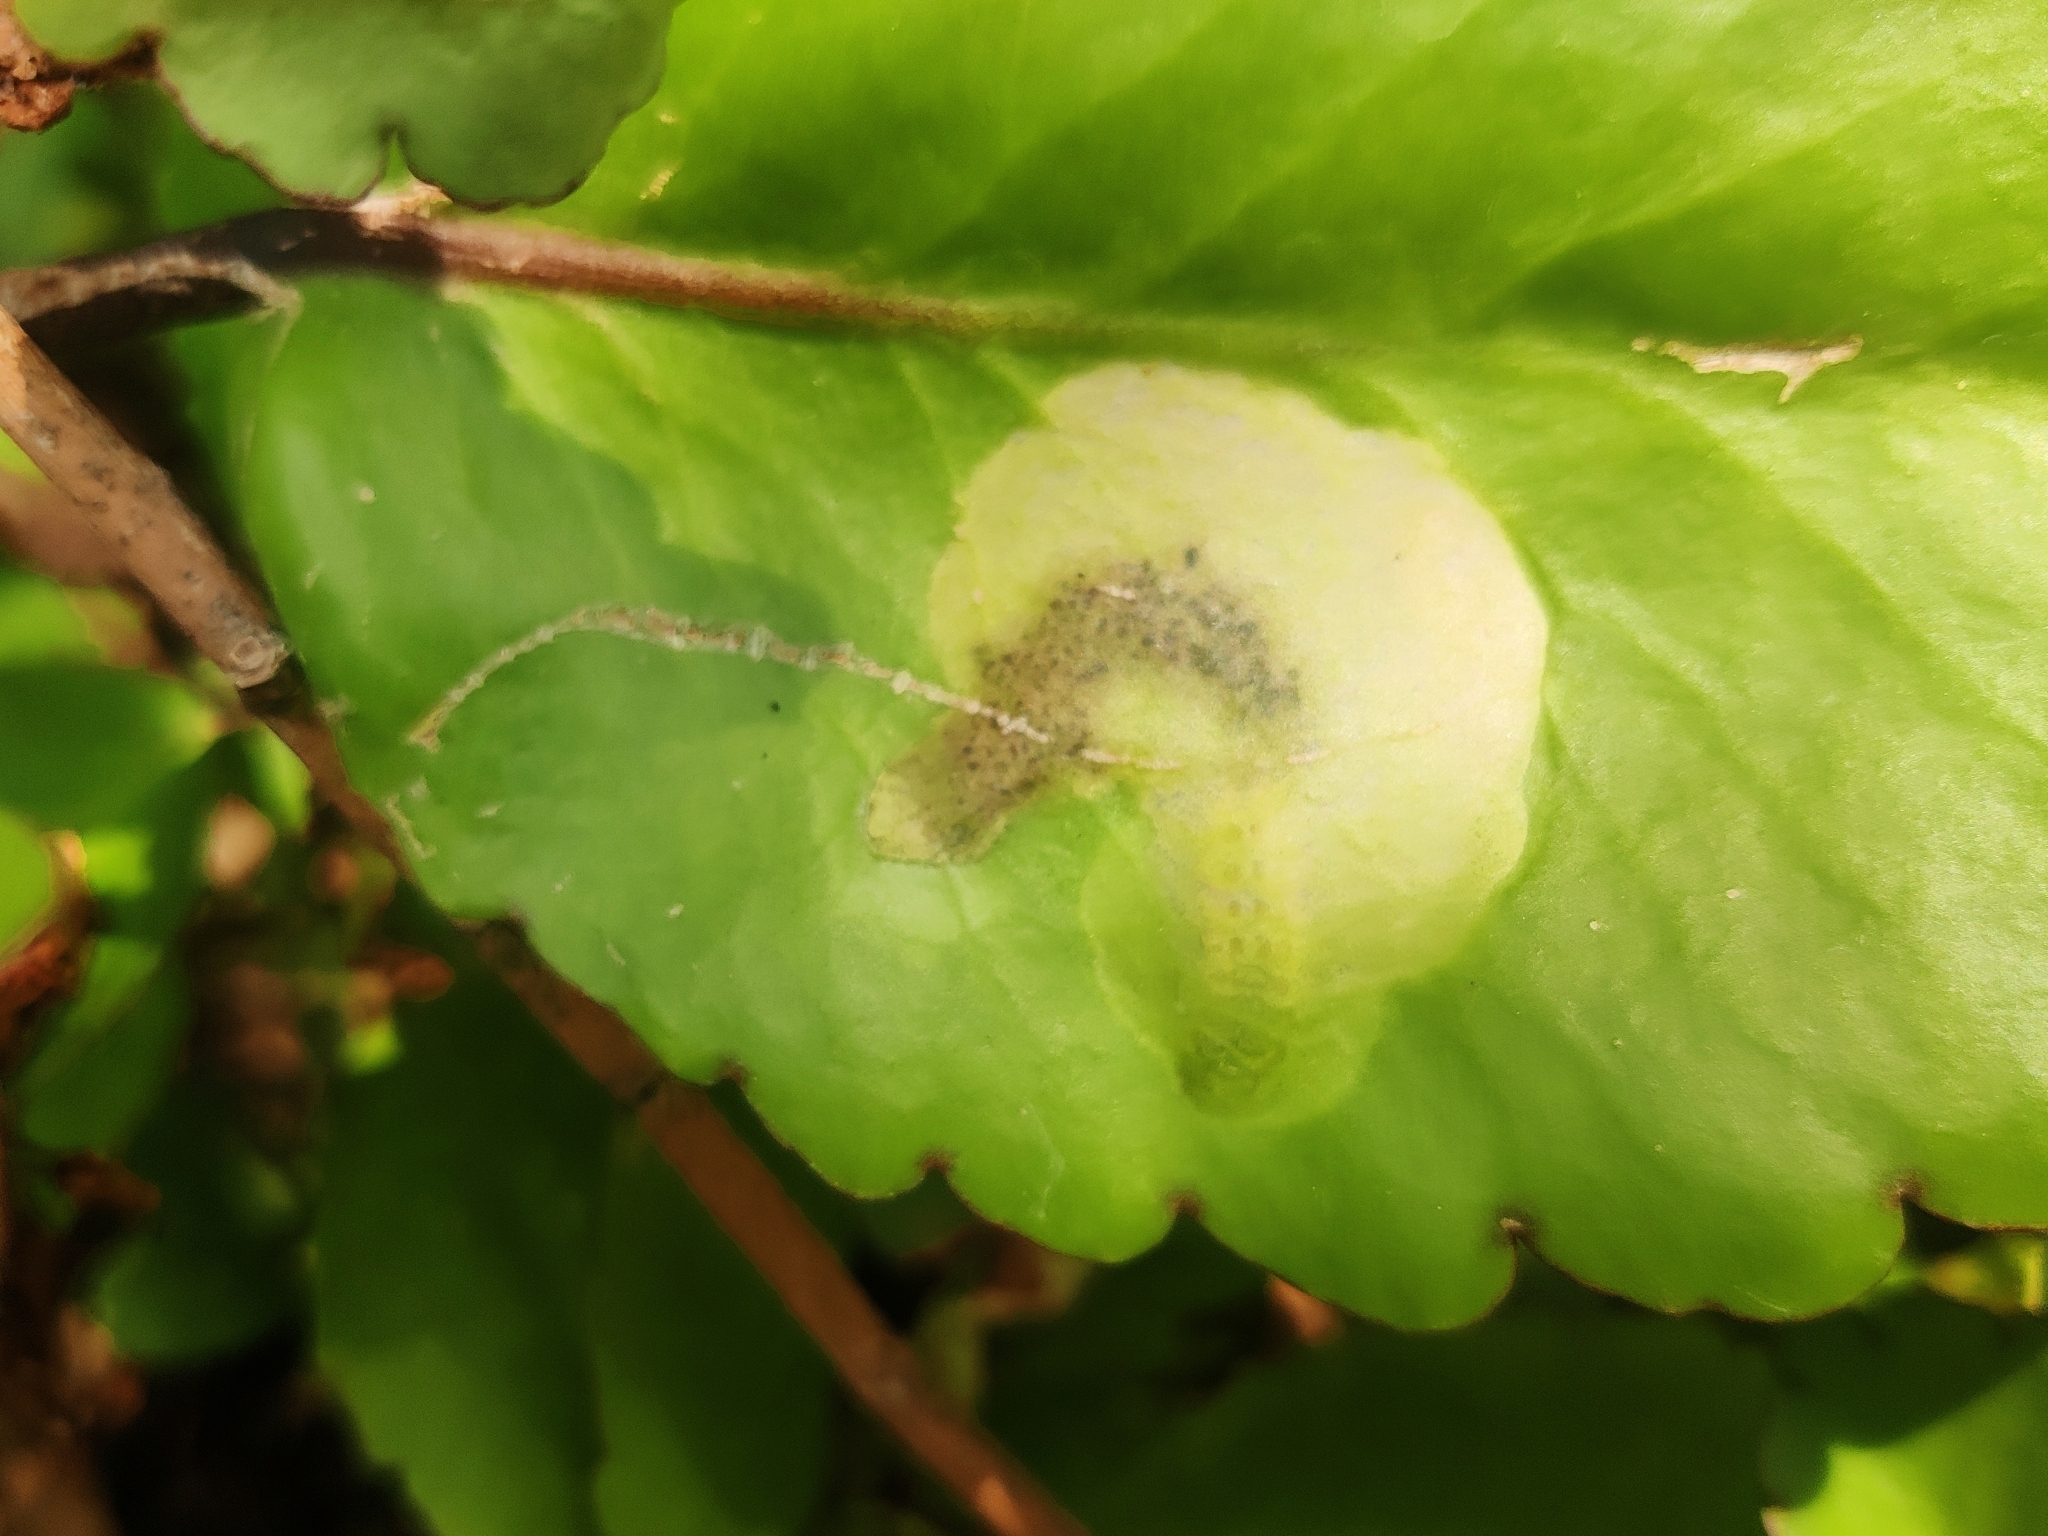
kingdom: Animalia
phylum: Arthropoda
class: Insecta
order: Lepidoptera
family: Lycaenidae
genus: Talicada
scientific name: Talicada nyseus
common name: Red pierrot
